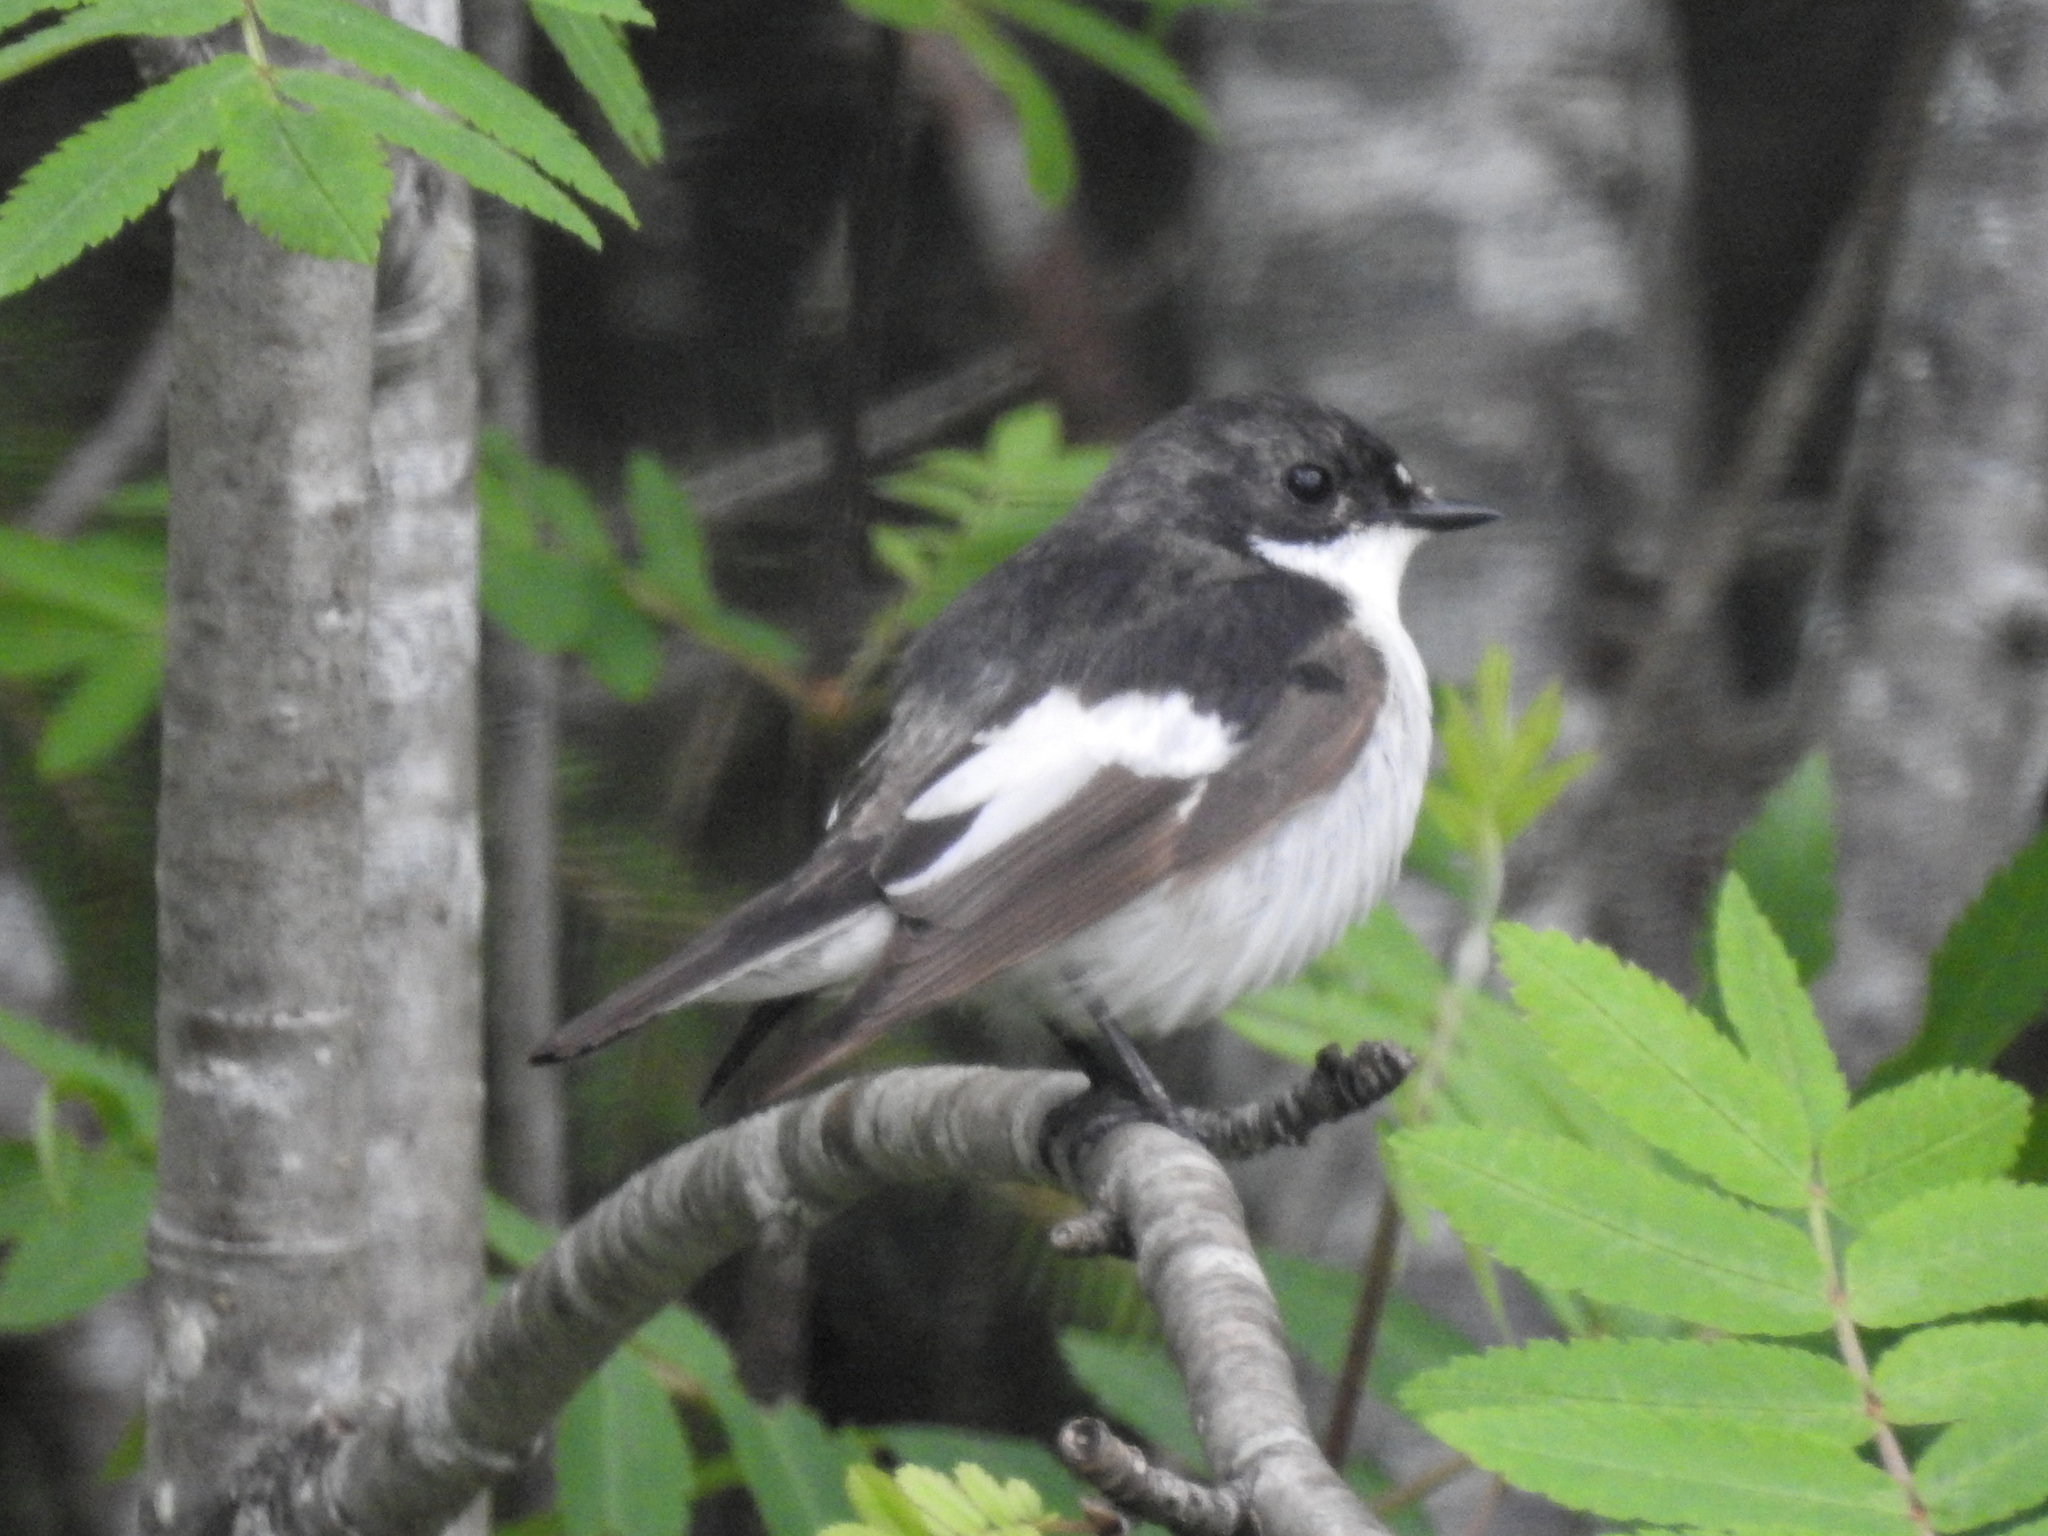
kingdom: Animalia
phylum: Chordata
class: Aves
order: Passeriformes
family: Muscicapidae
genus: Ficedula
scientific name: Ficedula hypoleuca
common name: European pied flycatcher
